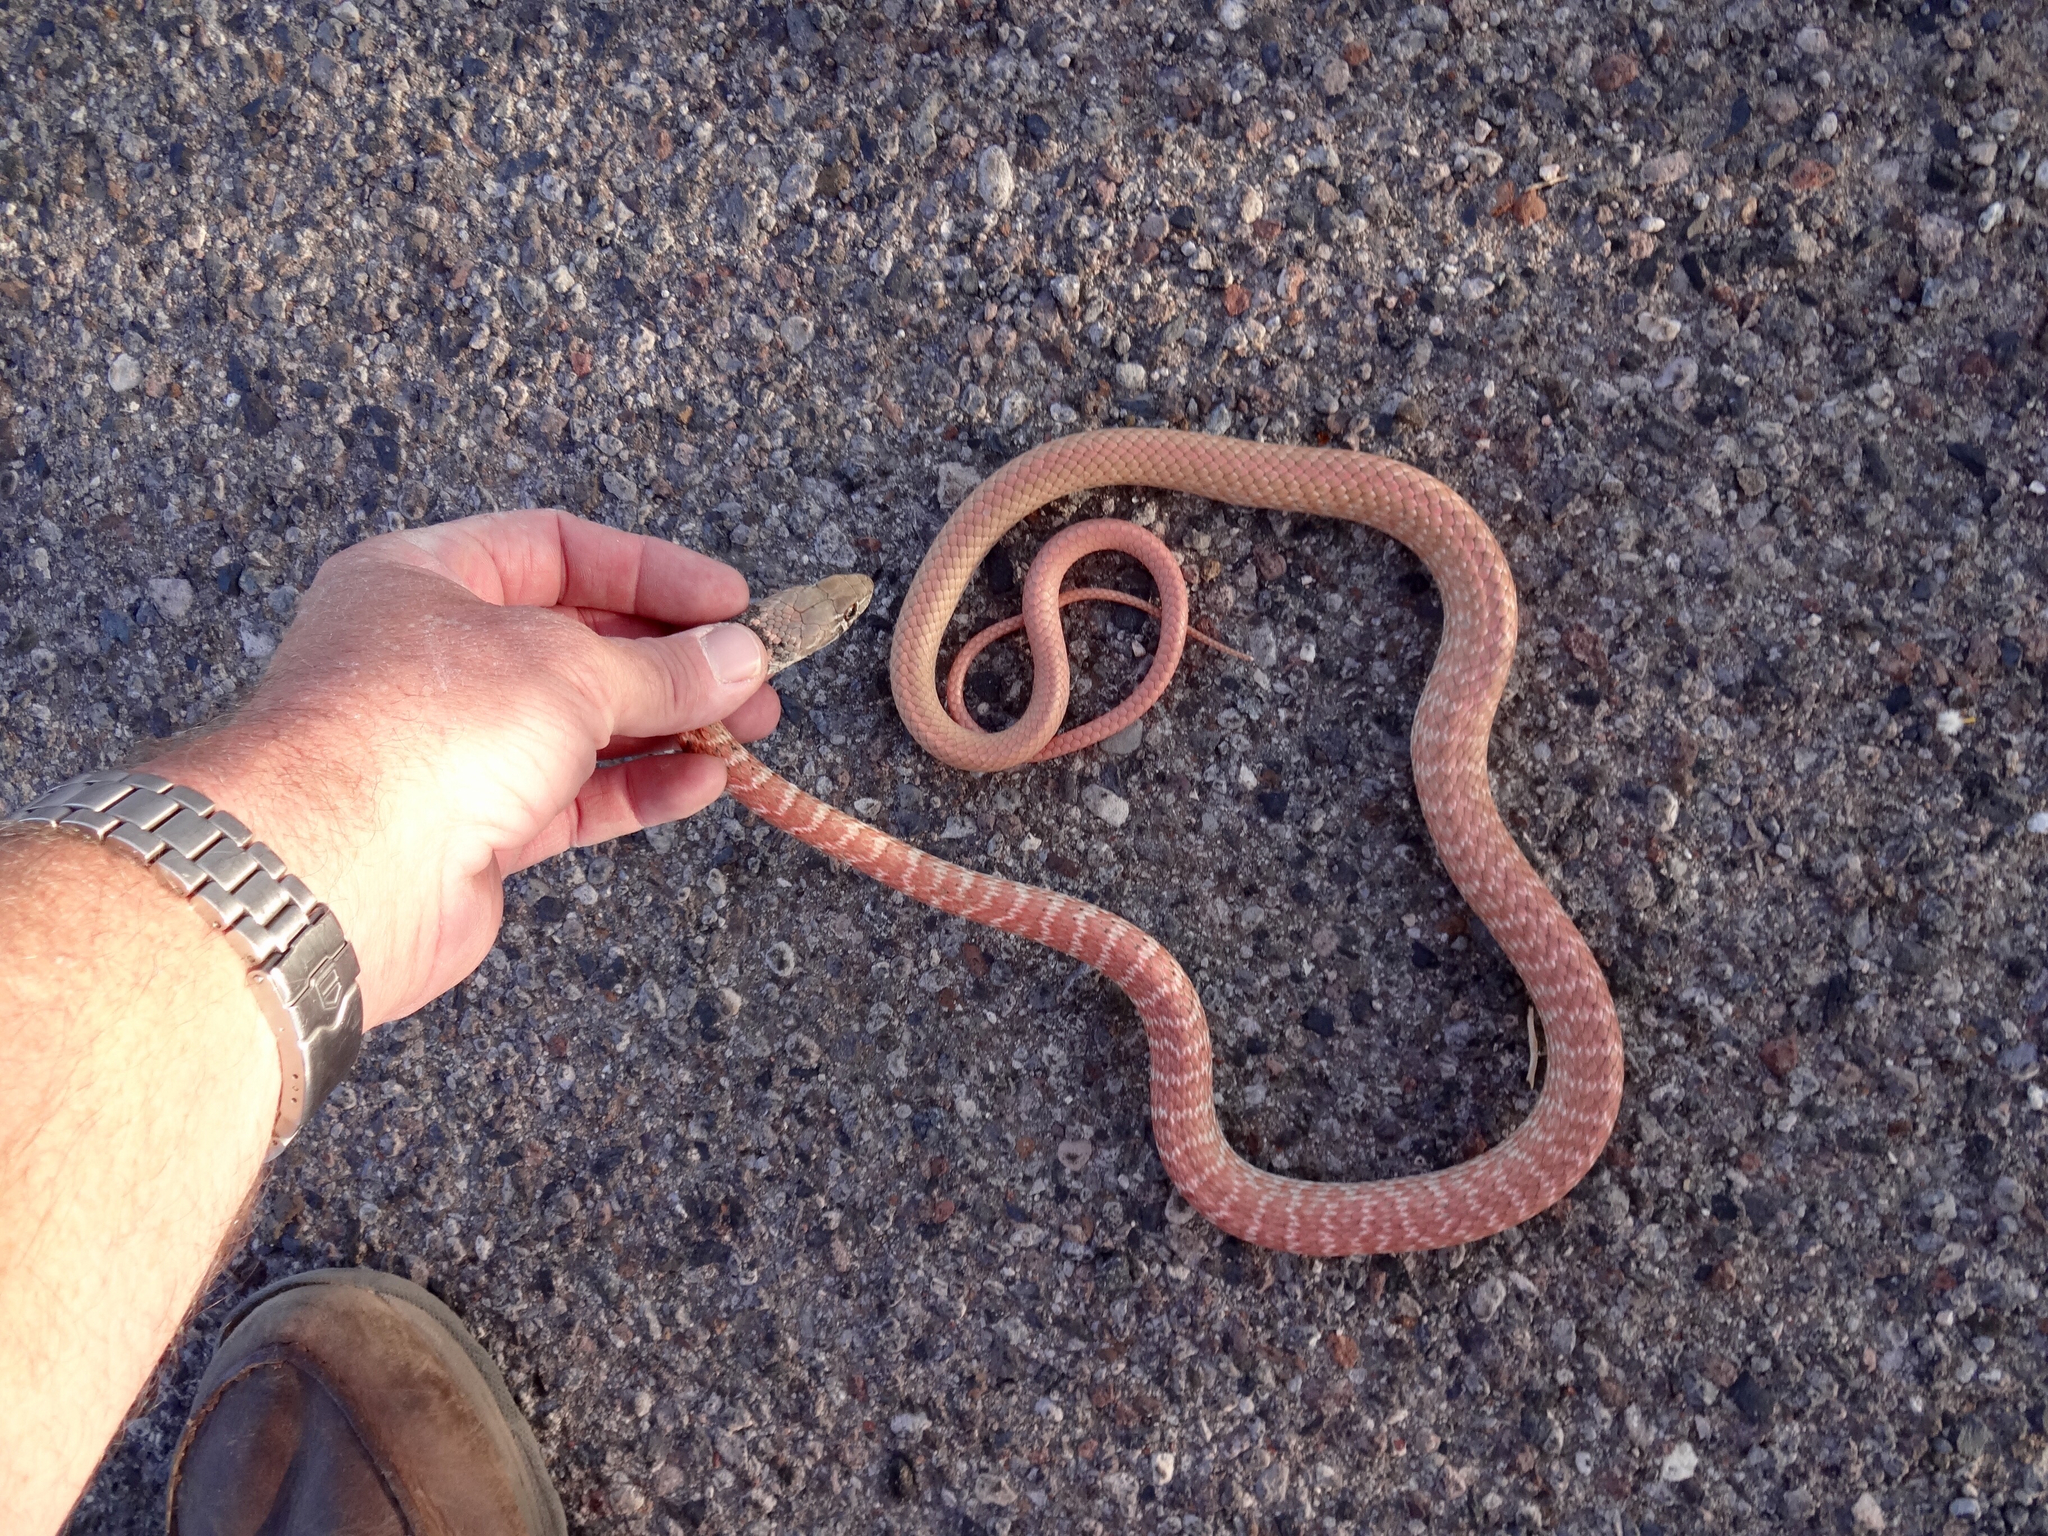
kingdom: Animalia
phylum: Chordata
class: Squamata
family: Colubridae
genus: Masticophis
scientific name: Masticophis flagellum
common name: Coachwhip
